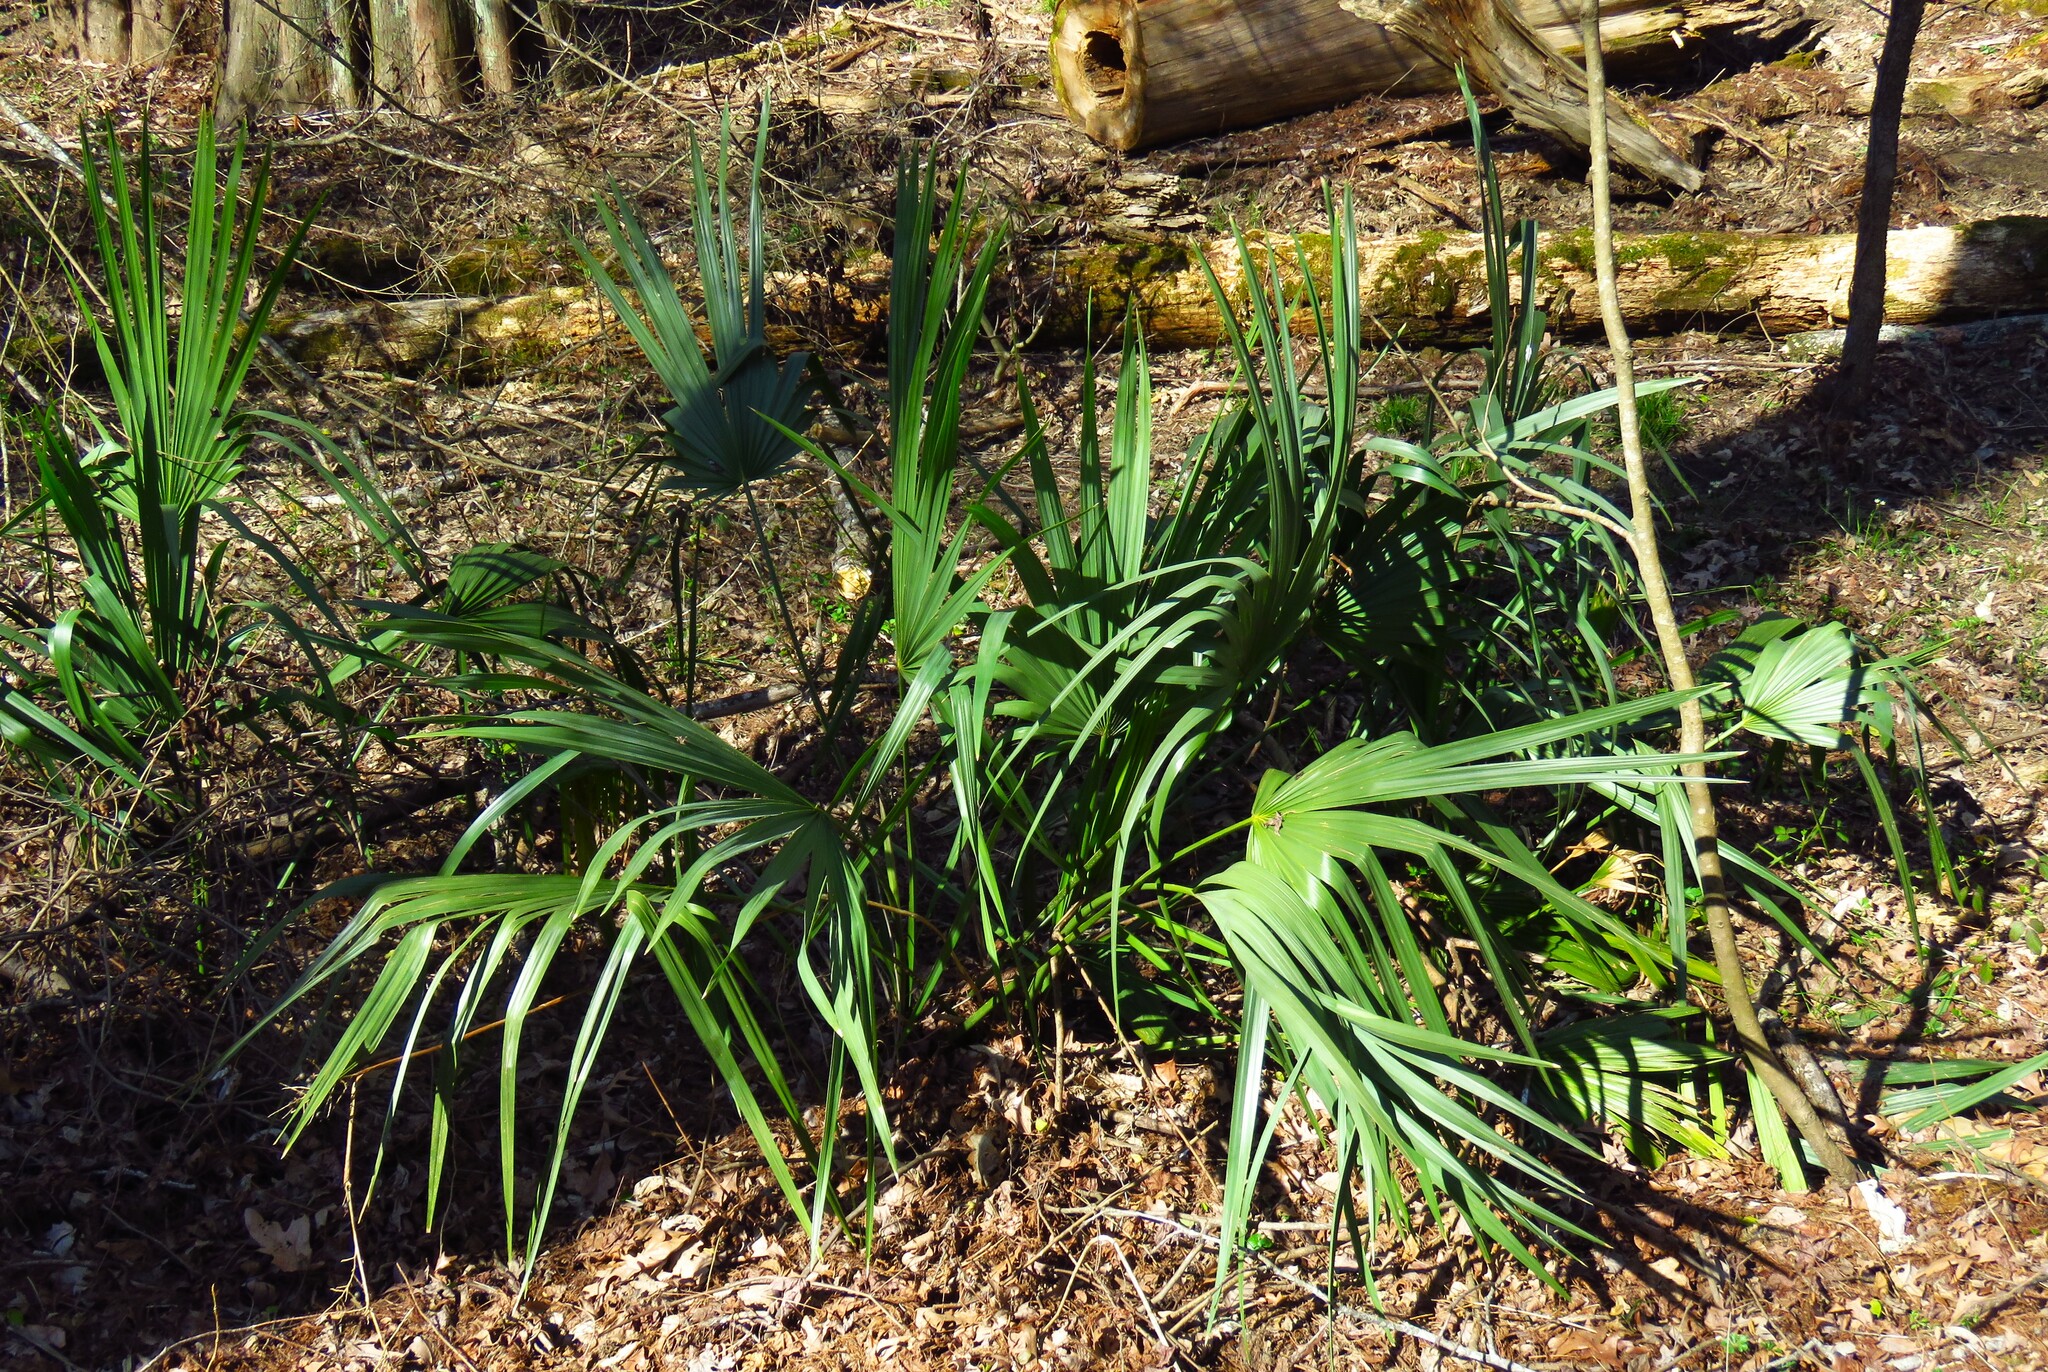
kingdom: Plantae
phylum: Tracheophyta
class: Liliopsida
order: Arecales
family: Arecaceae
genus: Sabal
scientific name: Sabal minor
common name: Dwarf palmetto
